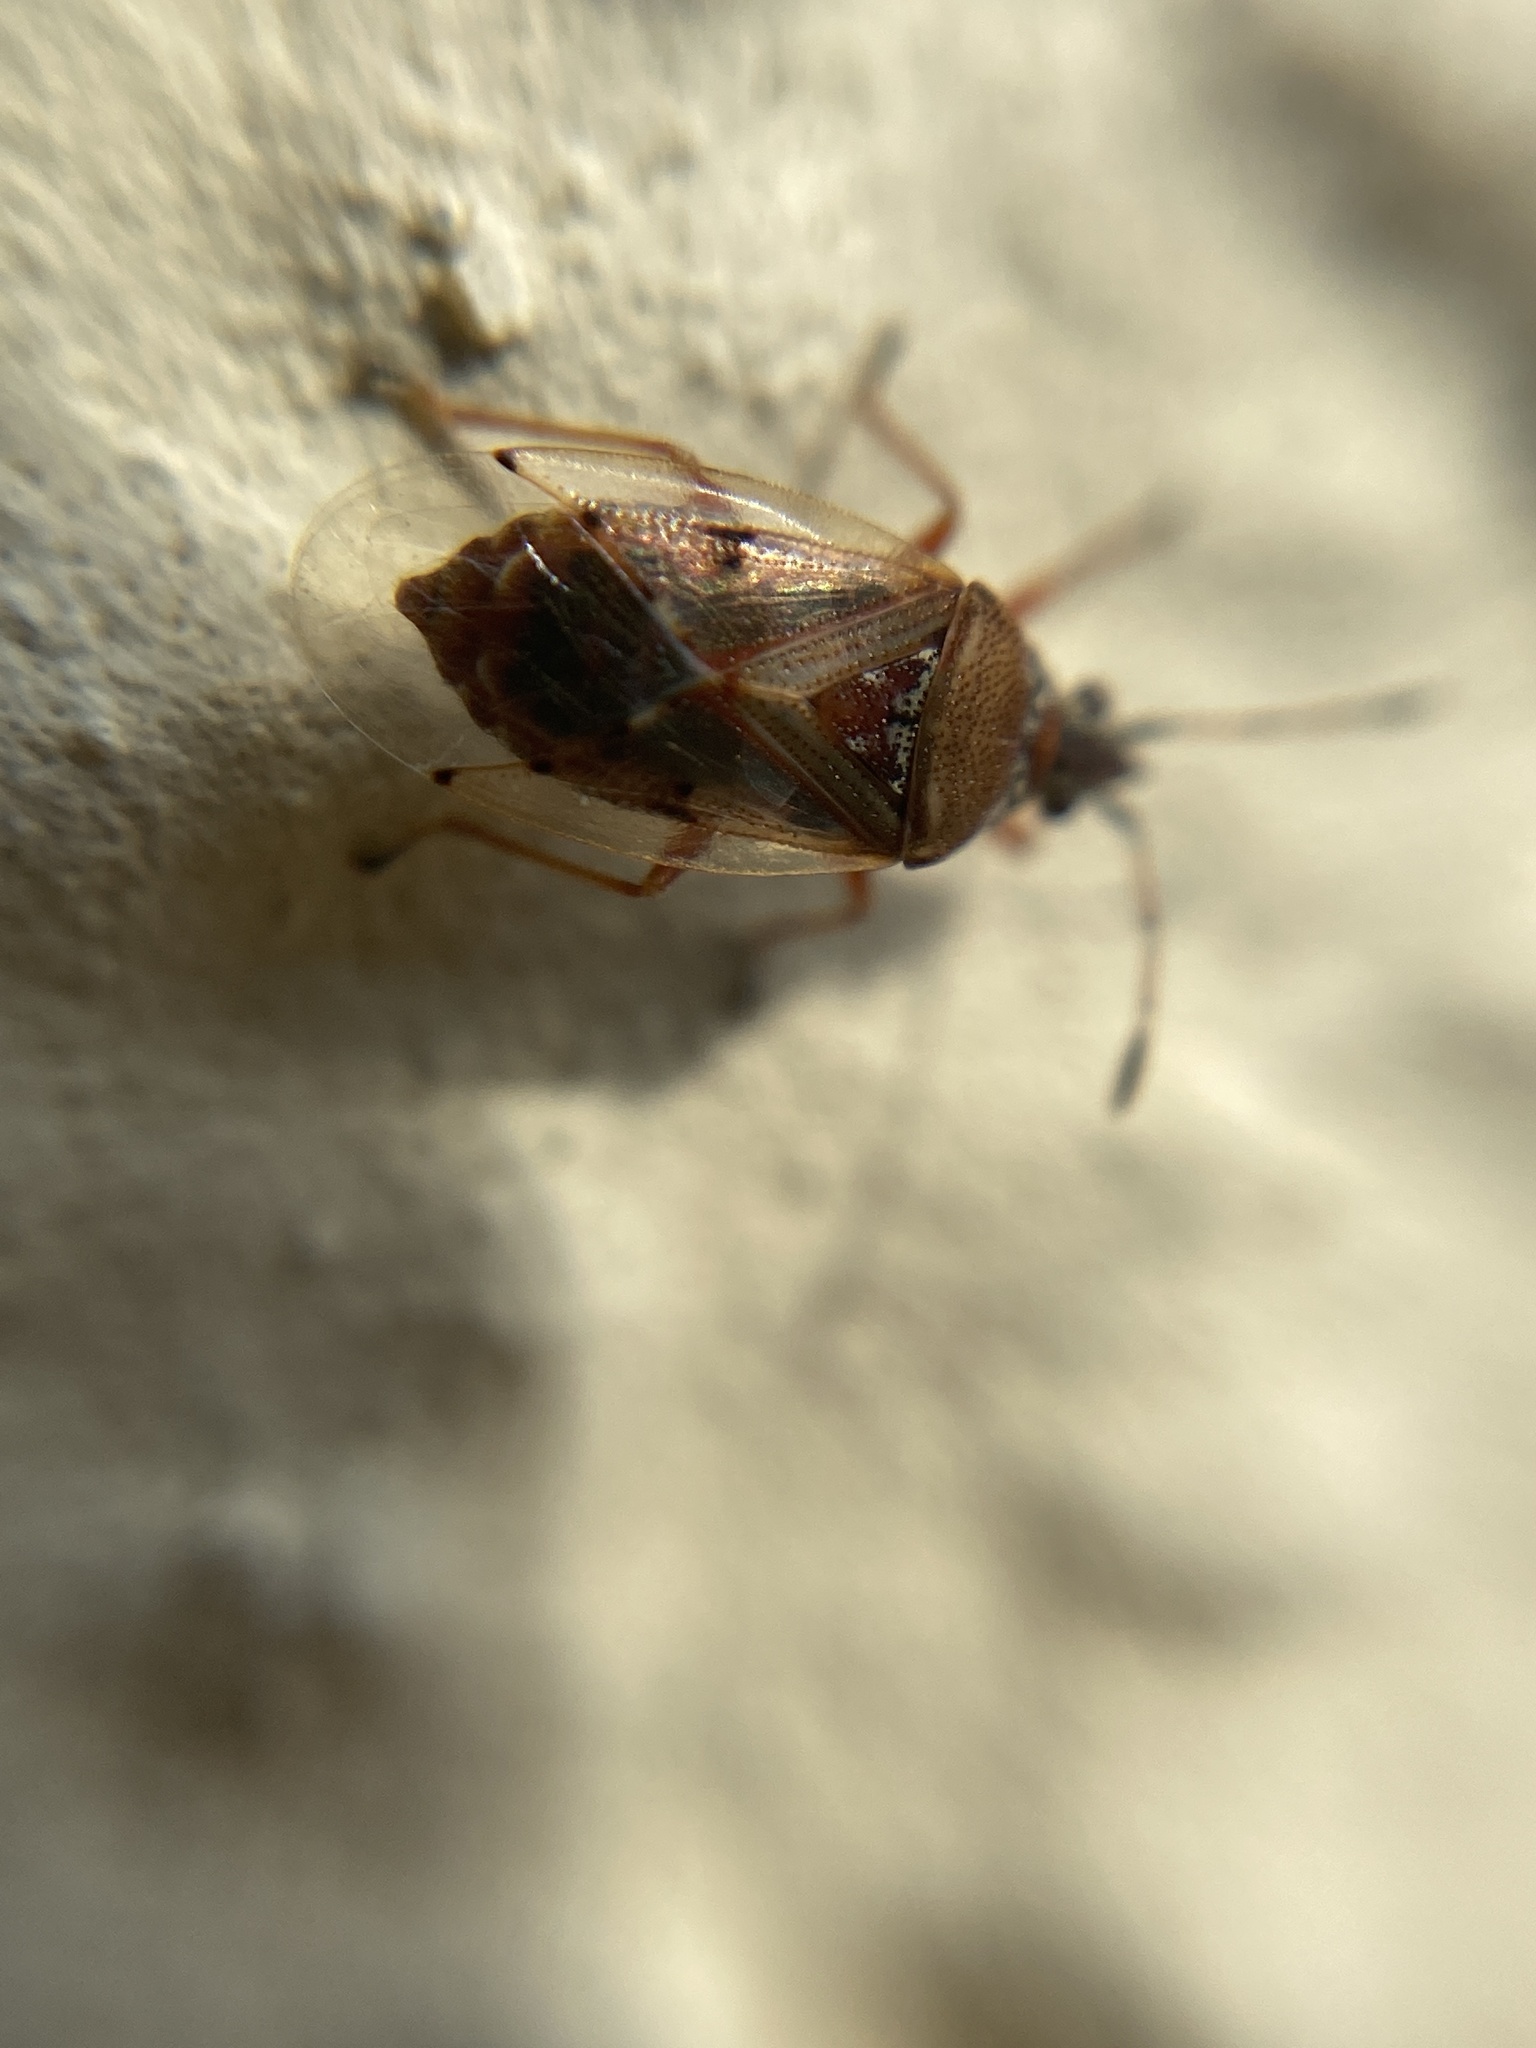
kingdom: Animalia
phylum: Arthropoda
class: Insecta
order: Hemiptera
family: Lygaeidae
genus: Kleidocerys
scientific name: Kleidocerys resedae
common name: Birch catkin bug
